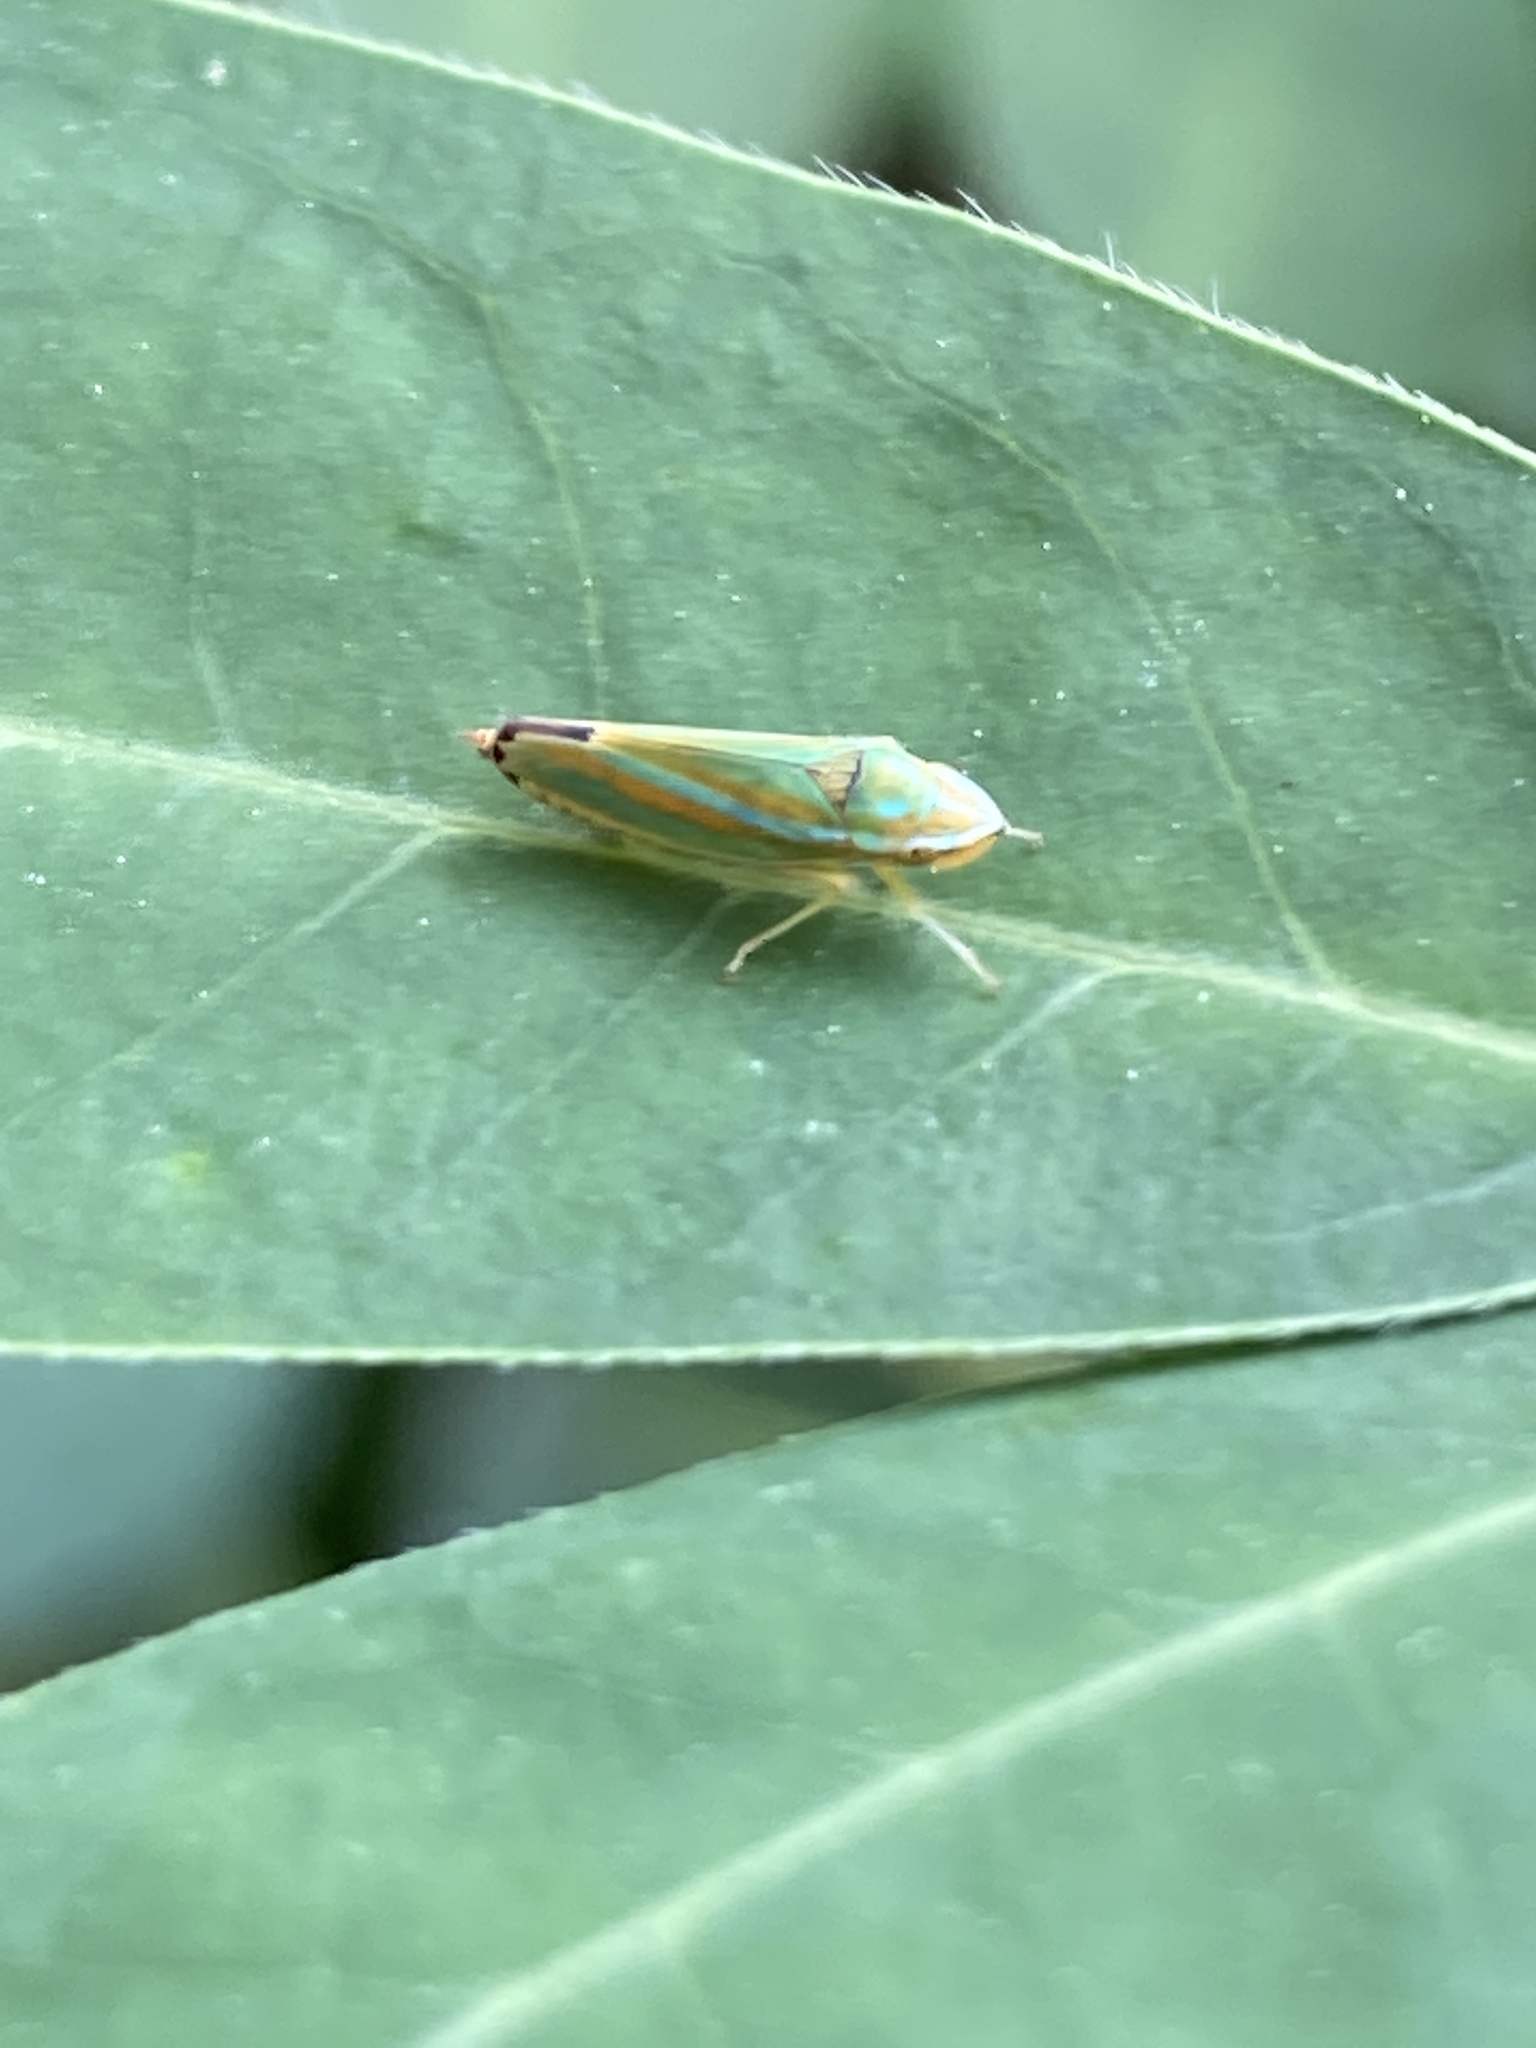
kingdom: Animalia
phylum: Arthropoda
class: Insecta
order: Hemiptera
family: Cicadellidae
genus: Graphocephala
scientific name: Graphocephala versuta
